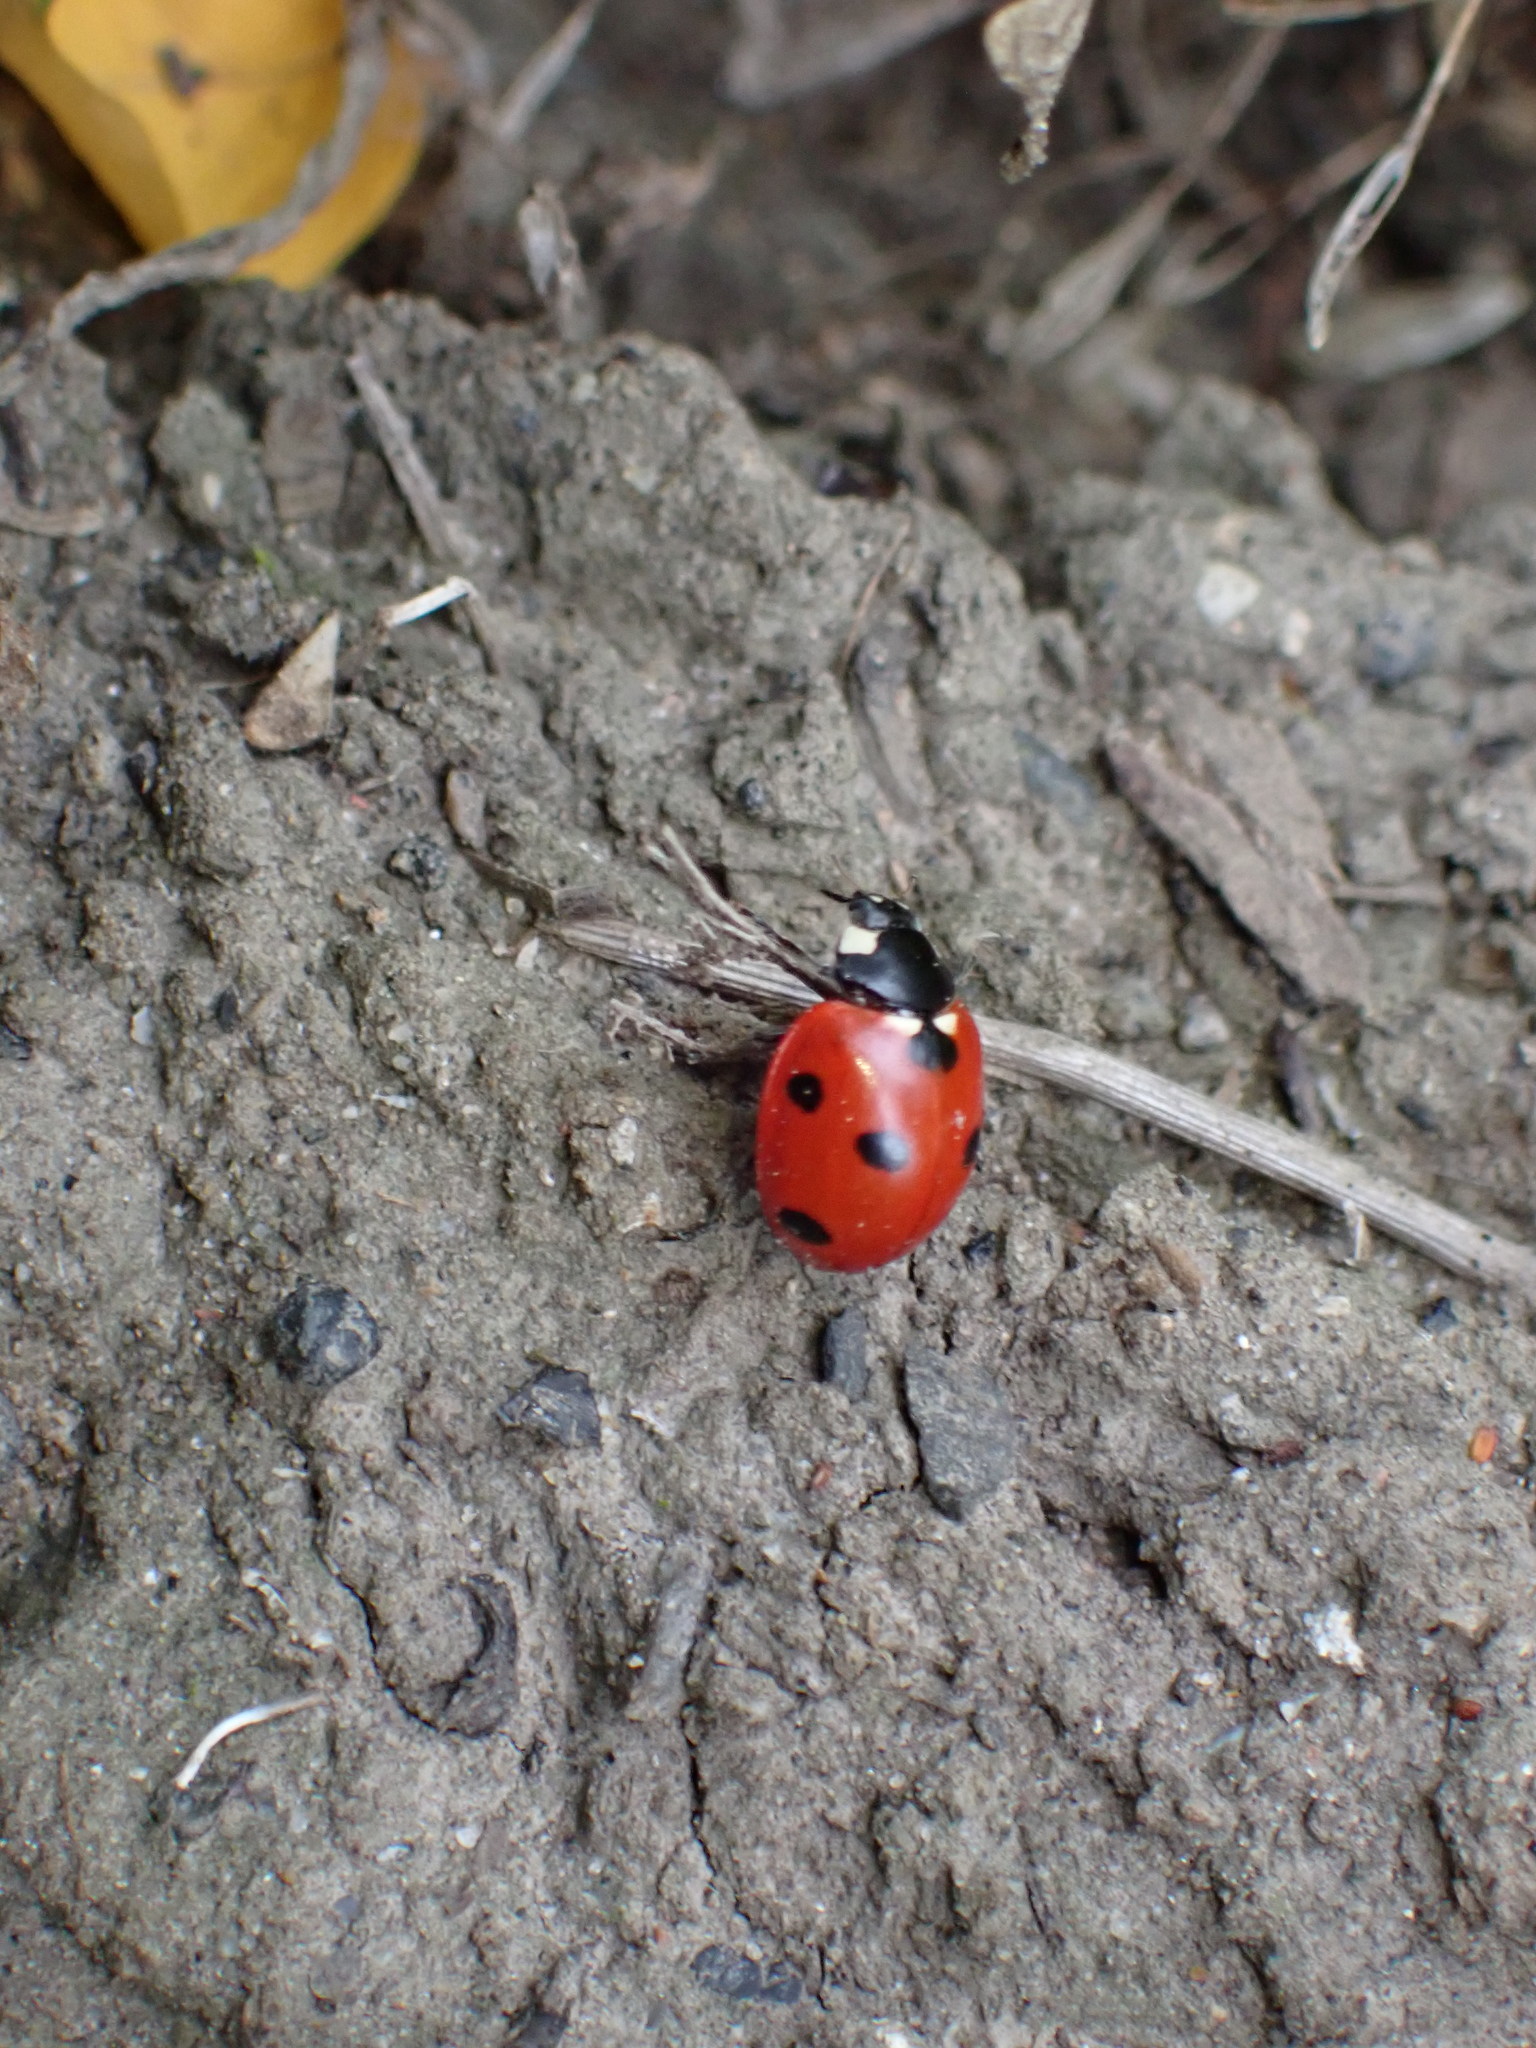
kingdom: Animalia
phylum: Arthropoda
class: Insecta
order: Coleoptera
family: Coccinellidae
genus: Coccinella
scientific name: Coccinella septempunctata
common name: Sevenspotted lady beetle
